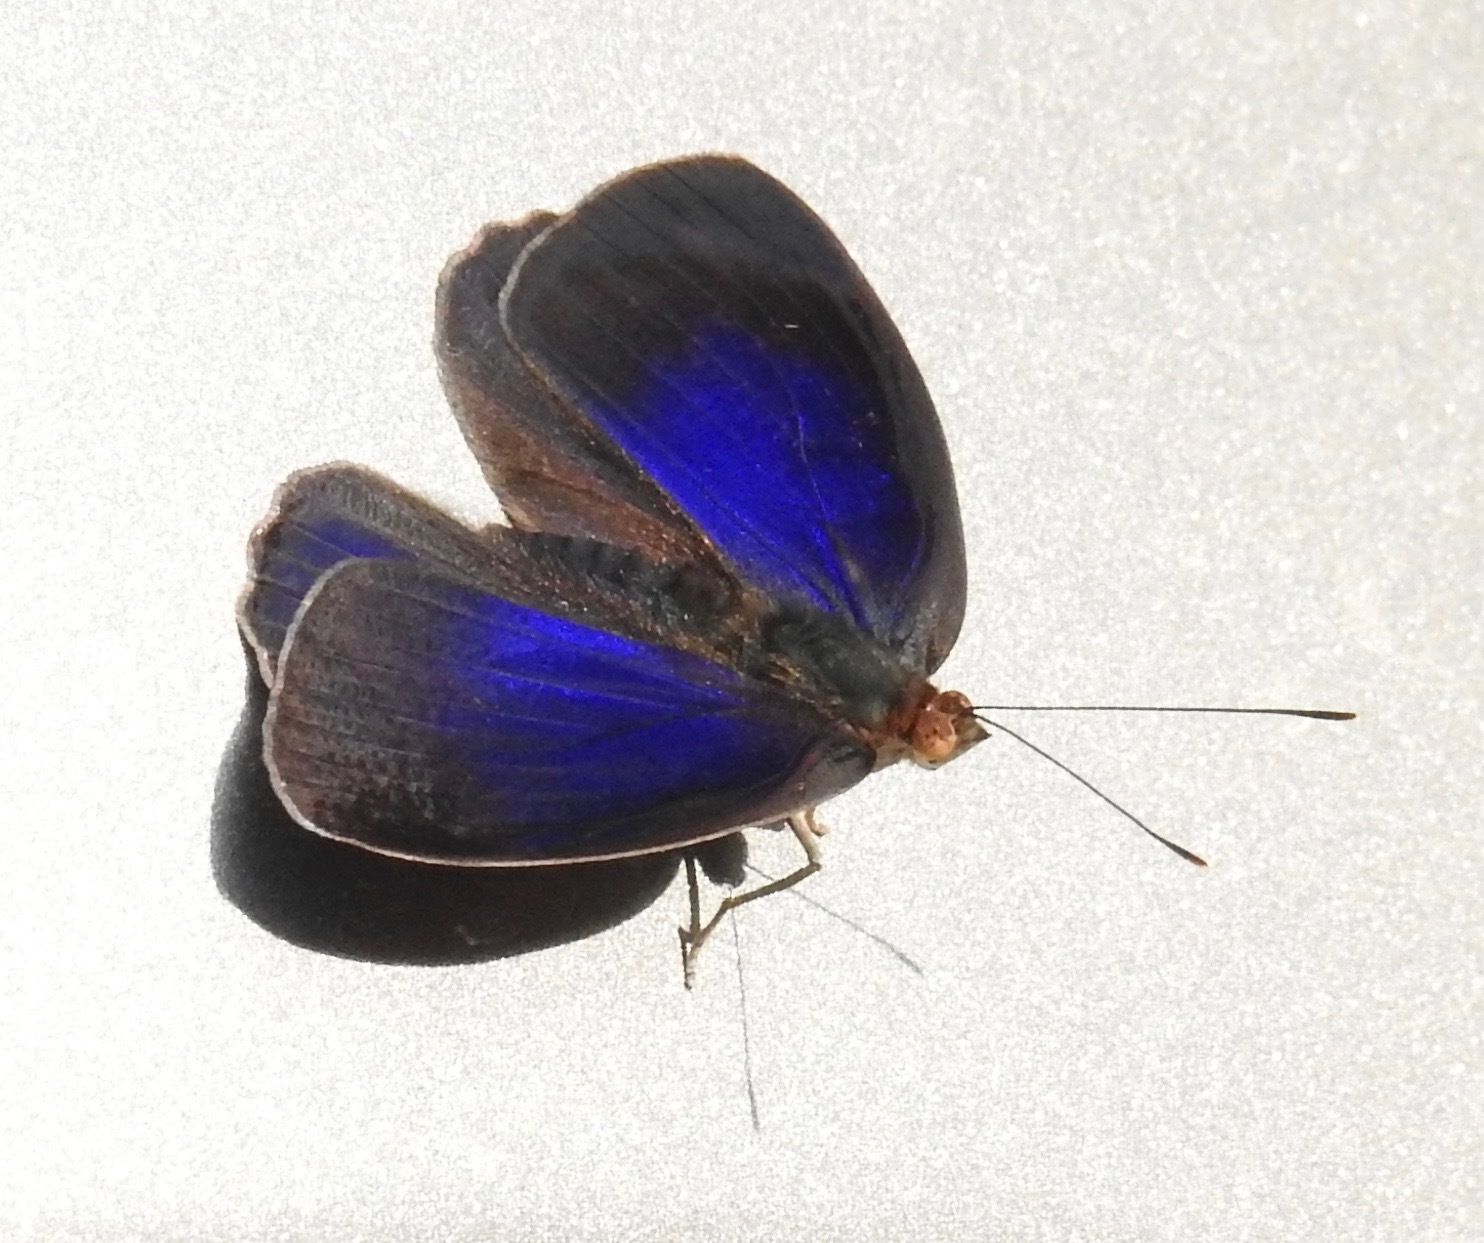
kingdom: Animalia
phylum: Arthropoda
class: Insecta
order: Lepidoptera
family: Nymphalidae
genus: Eunica
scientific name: Eunica orphise
